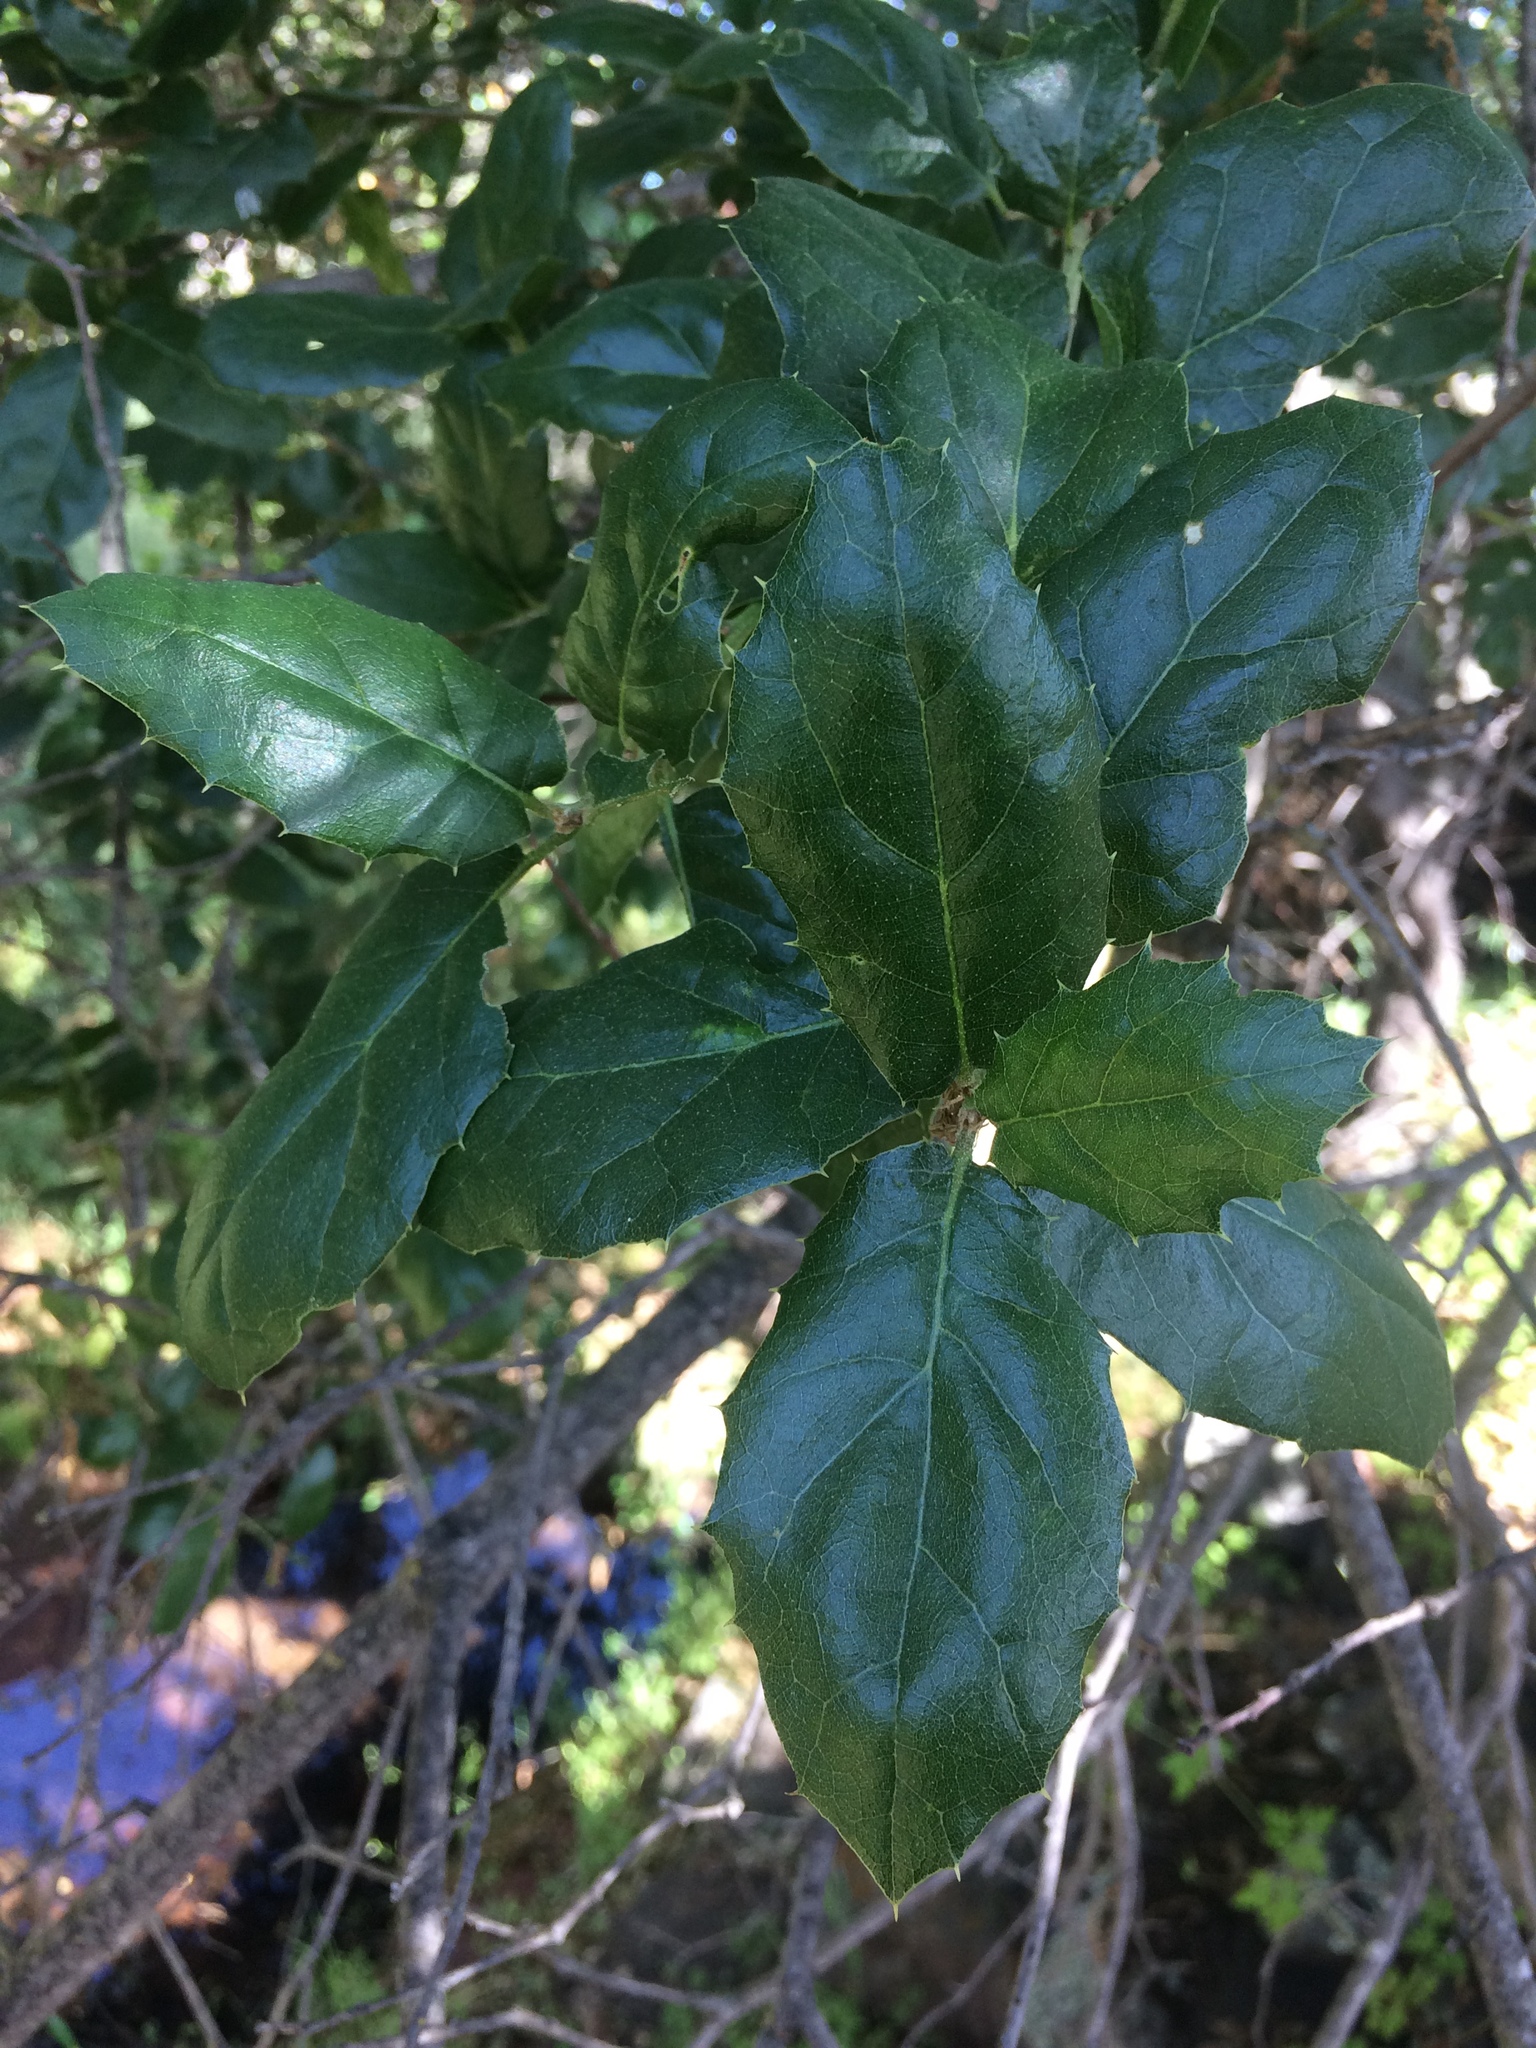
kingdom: Plantae
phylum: Tracheophyta
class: Magnoliopsida
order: Fagales
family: Fagaceae
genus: Quercus
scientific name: Quercus agrifolia
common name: California live oak
